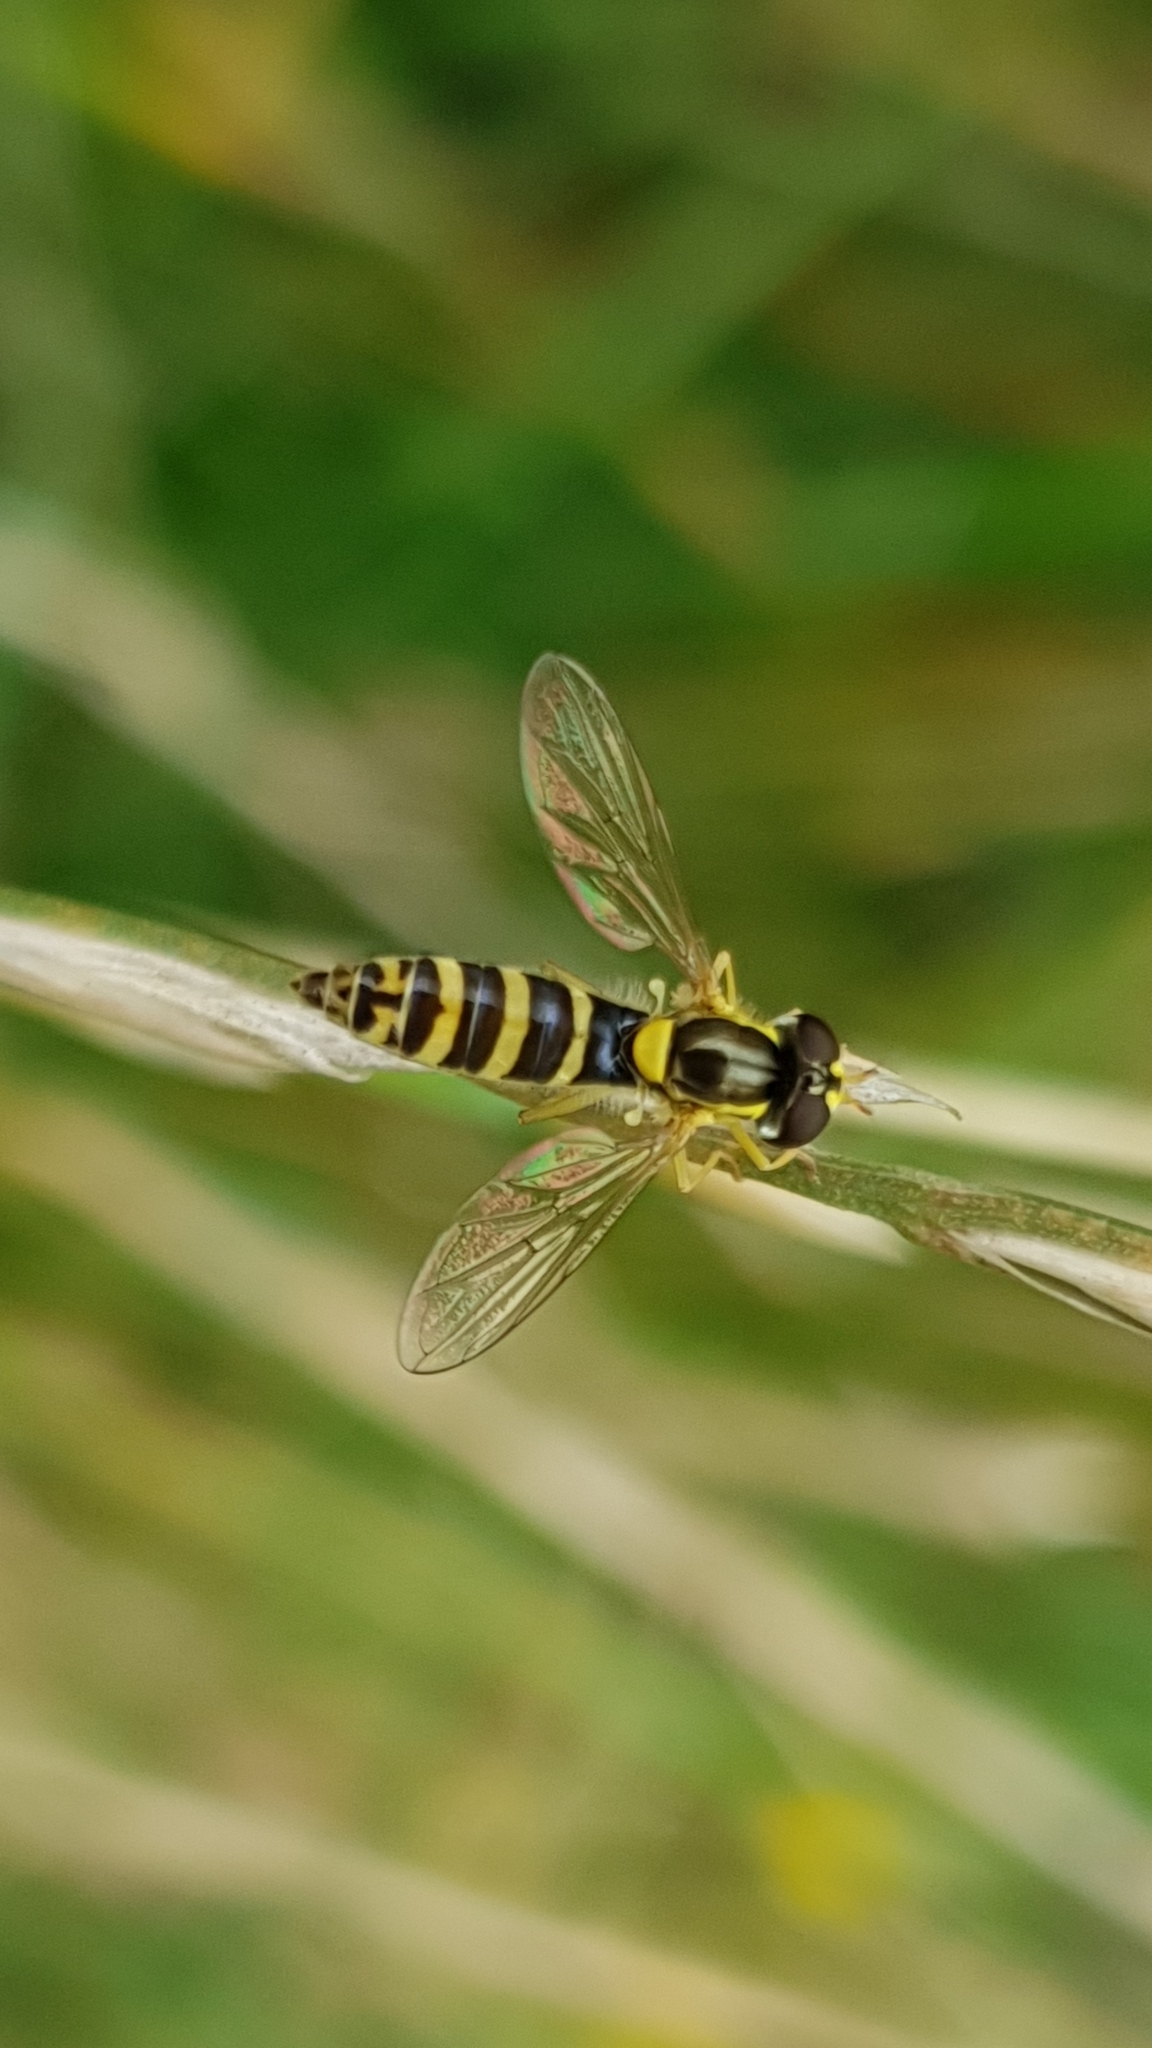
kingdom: Animalia
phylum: Arthropoda
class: Insecta
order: Diptera
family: Syrphidae
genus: Sphaerophoria
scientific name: Sphaerophoria
